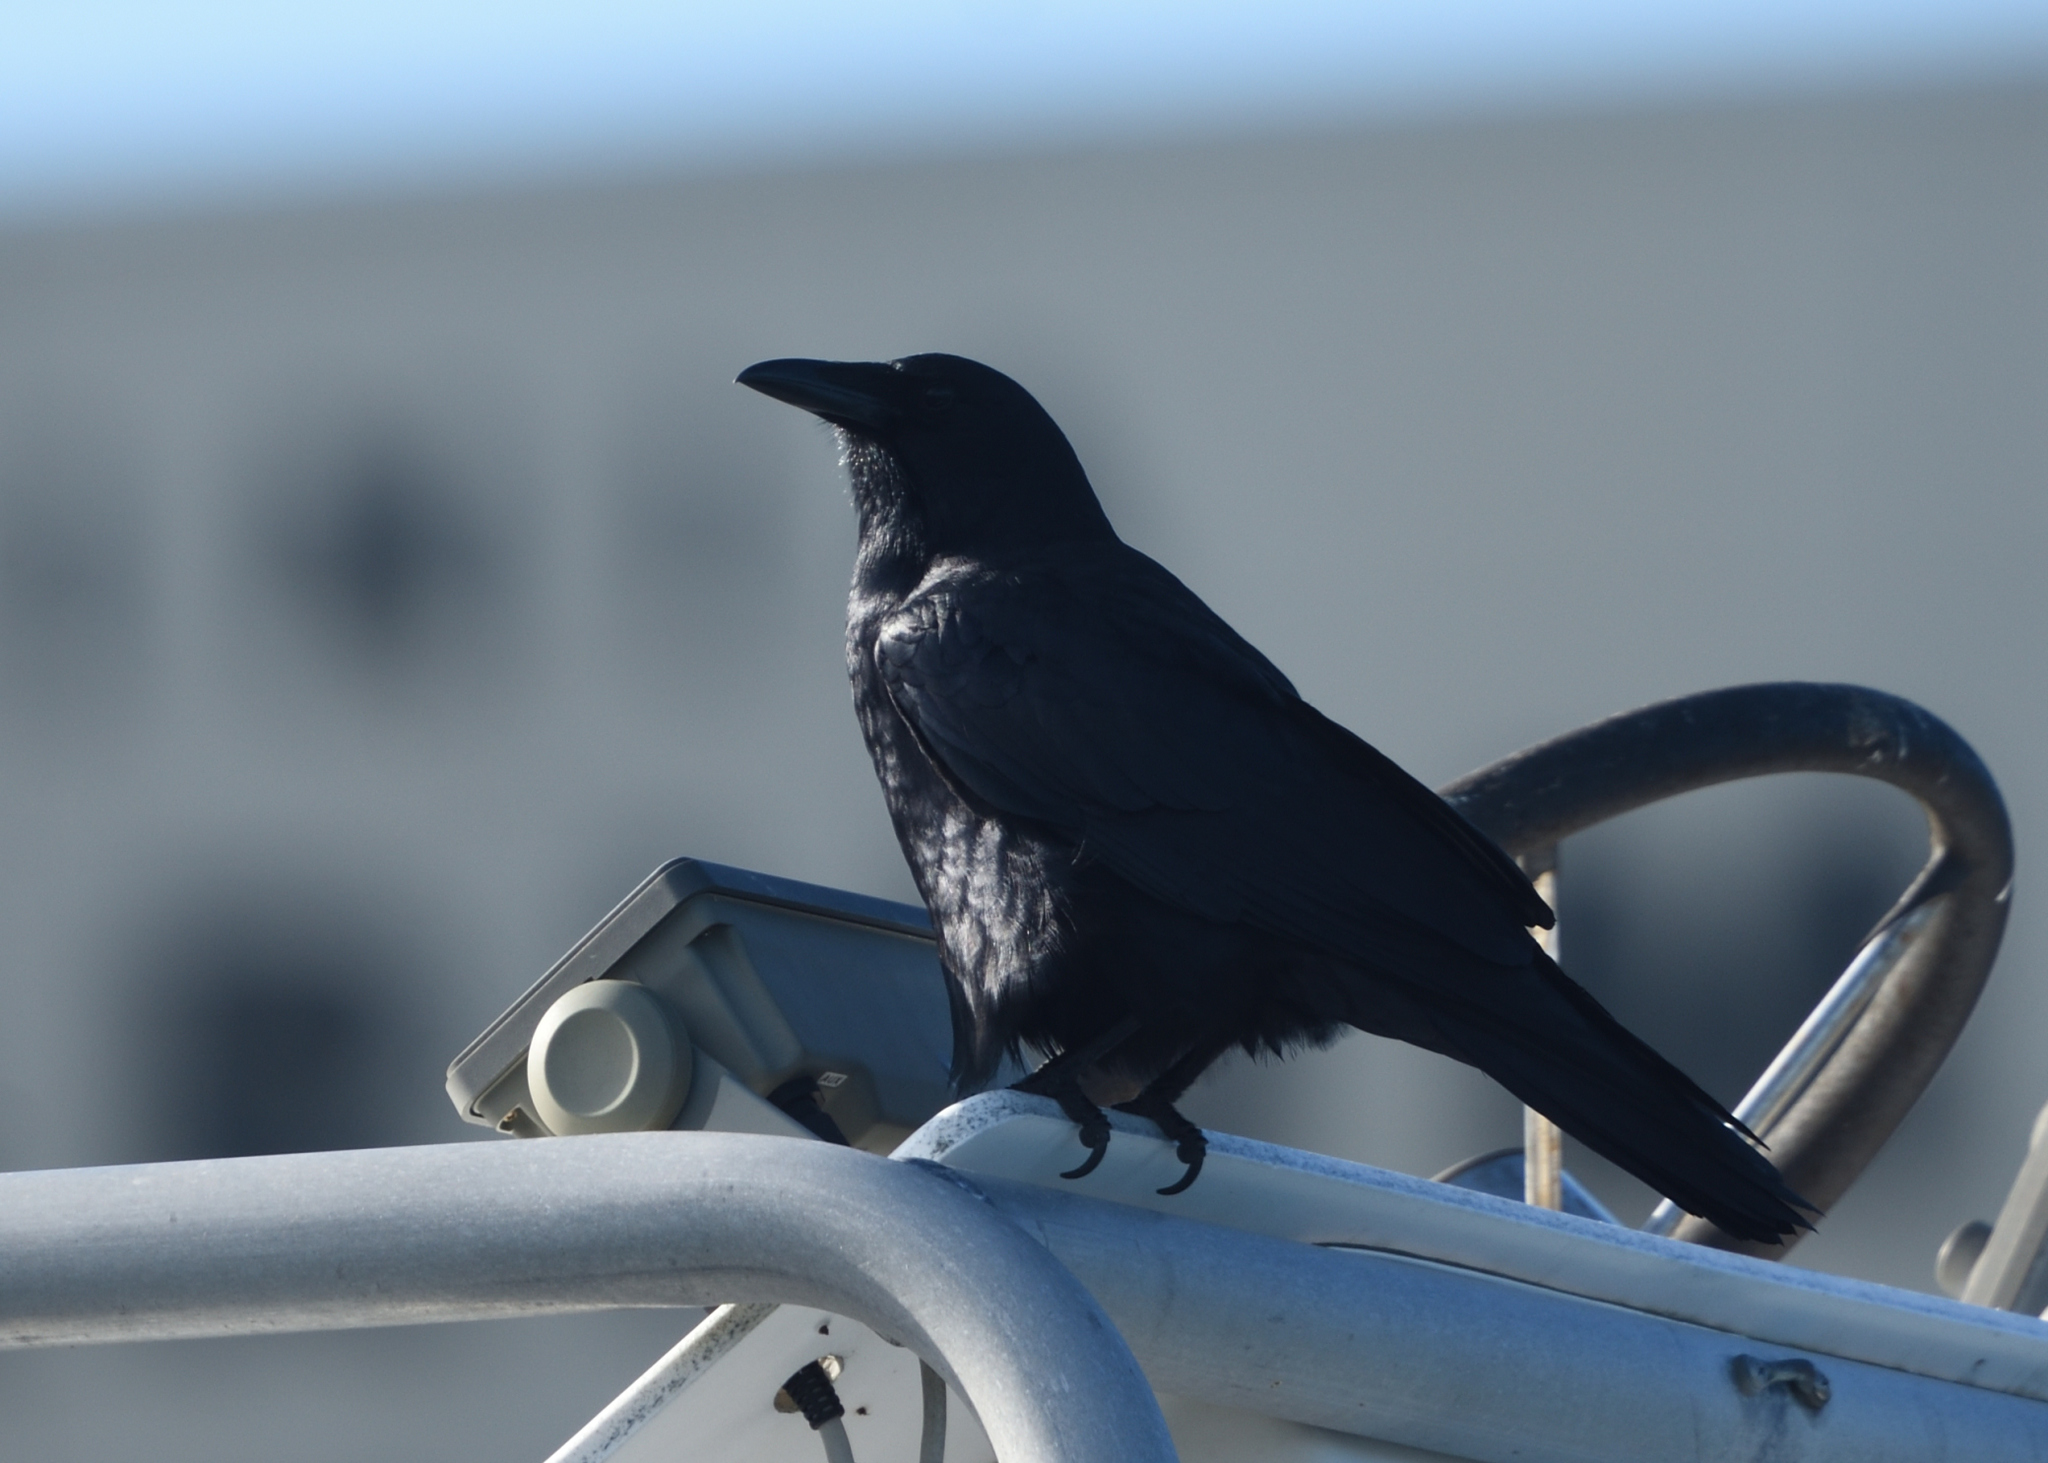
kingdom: Animalia
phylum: Chordata
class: Aves
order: Passeriformes
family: Corvidae
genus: Corvus
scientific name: Corvus ossifragus
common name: Fish crow
